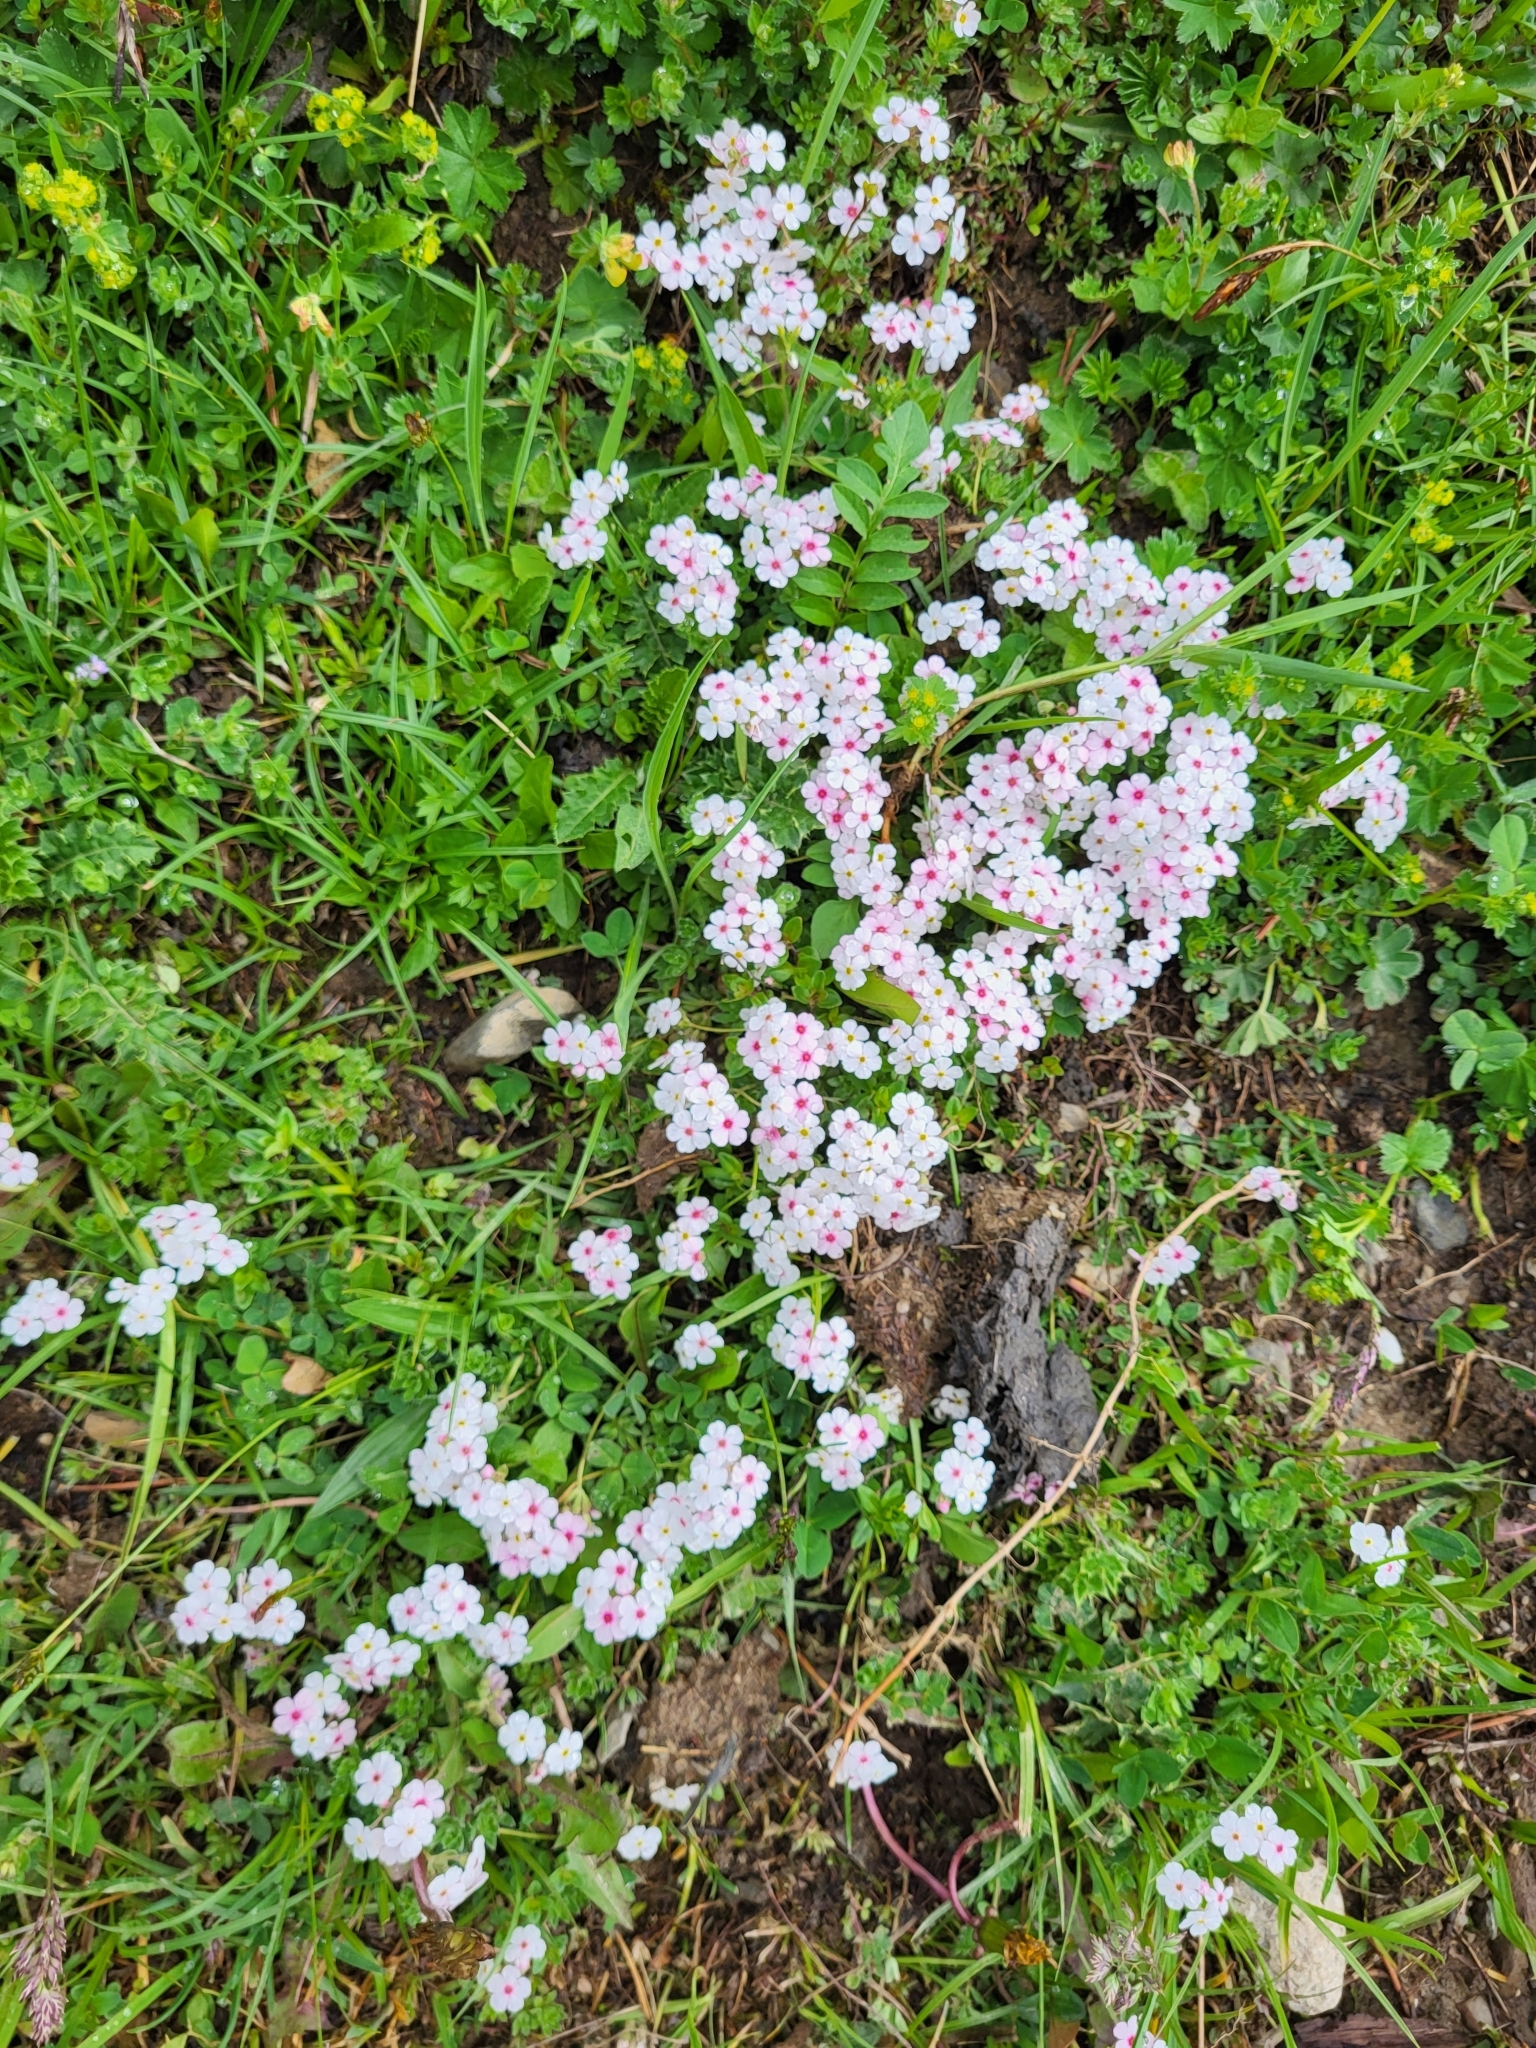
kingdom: Plantae
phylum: Tracheophyta
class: Magnoliopsida
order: Ericales
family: Primulaceae
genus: Androsace
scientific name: Androsace villosa
